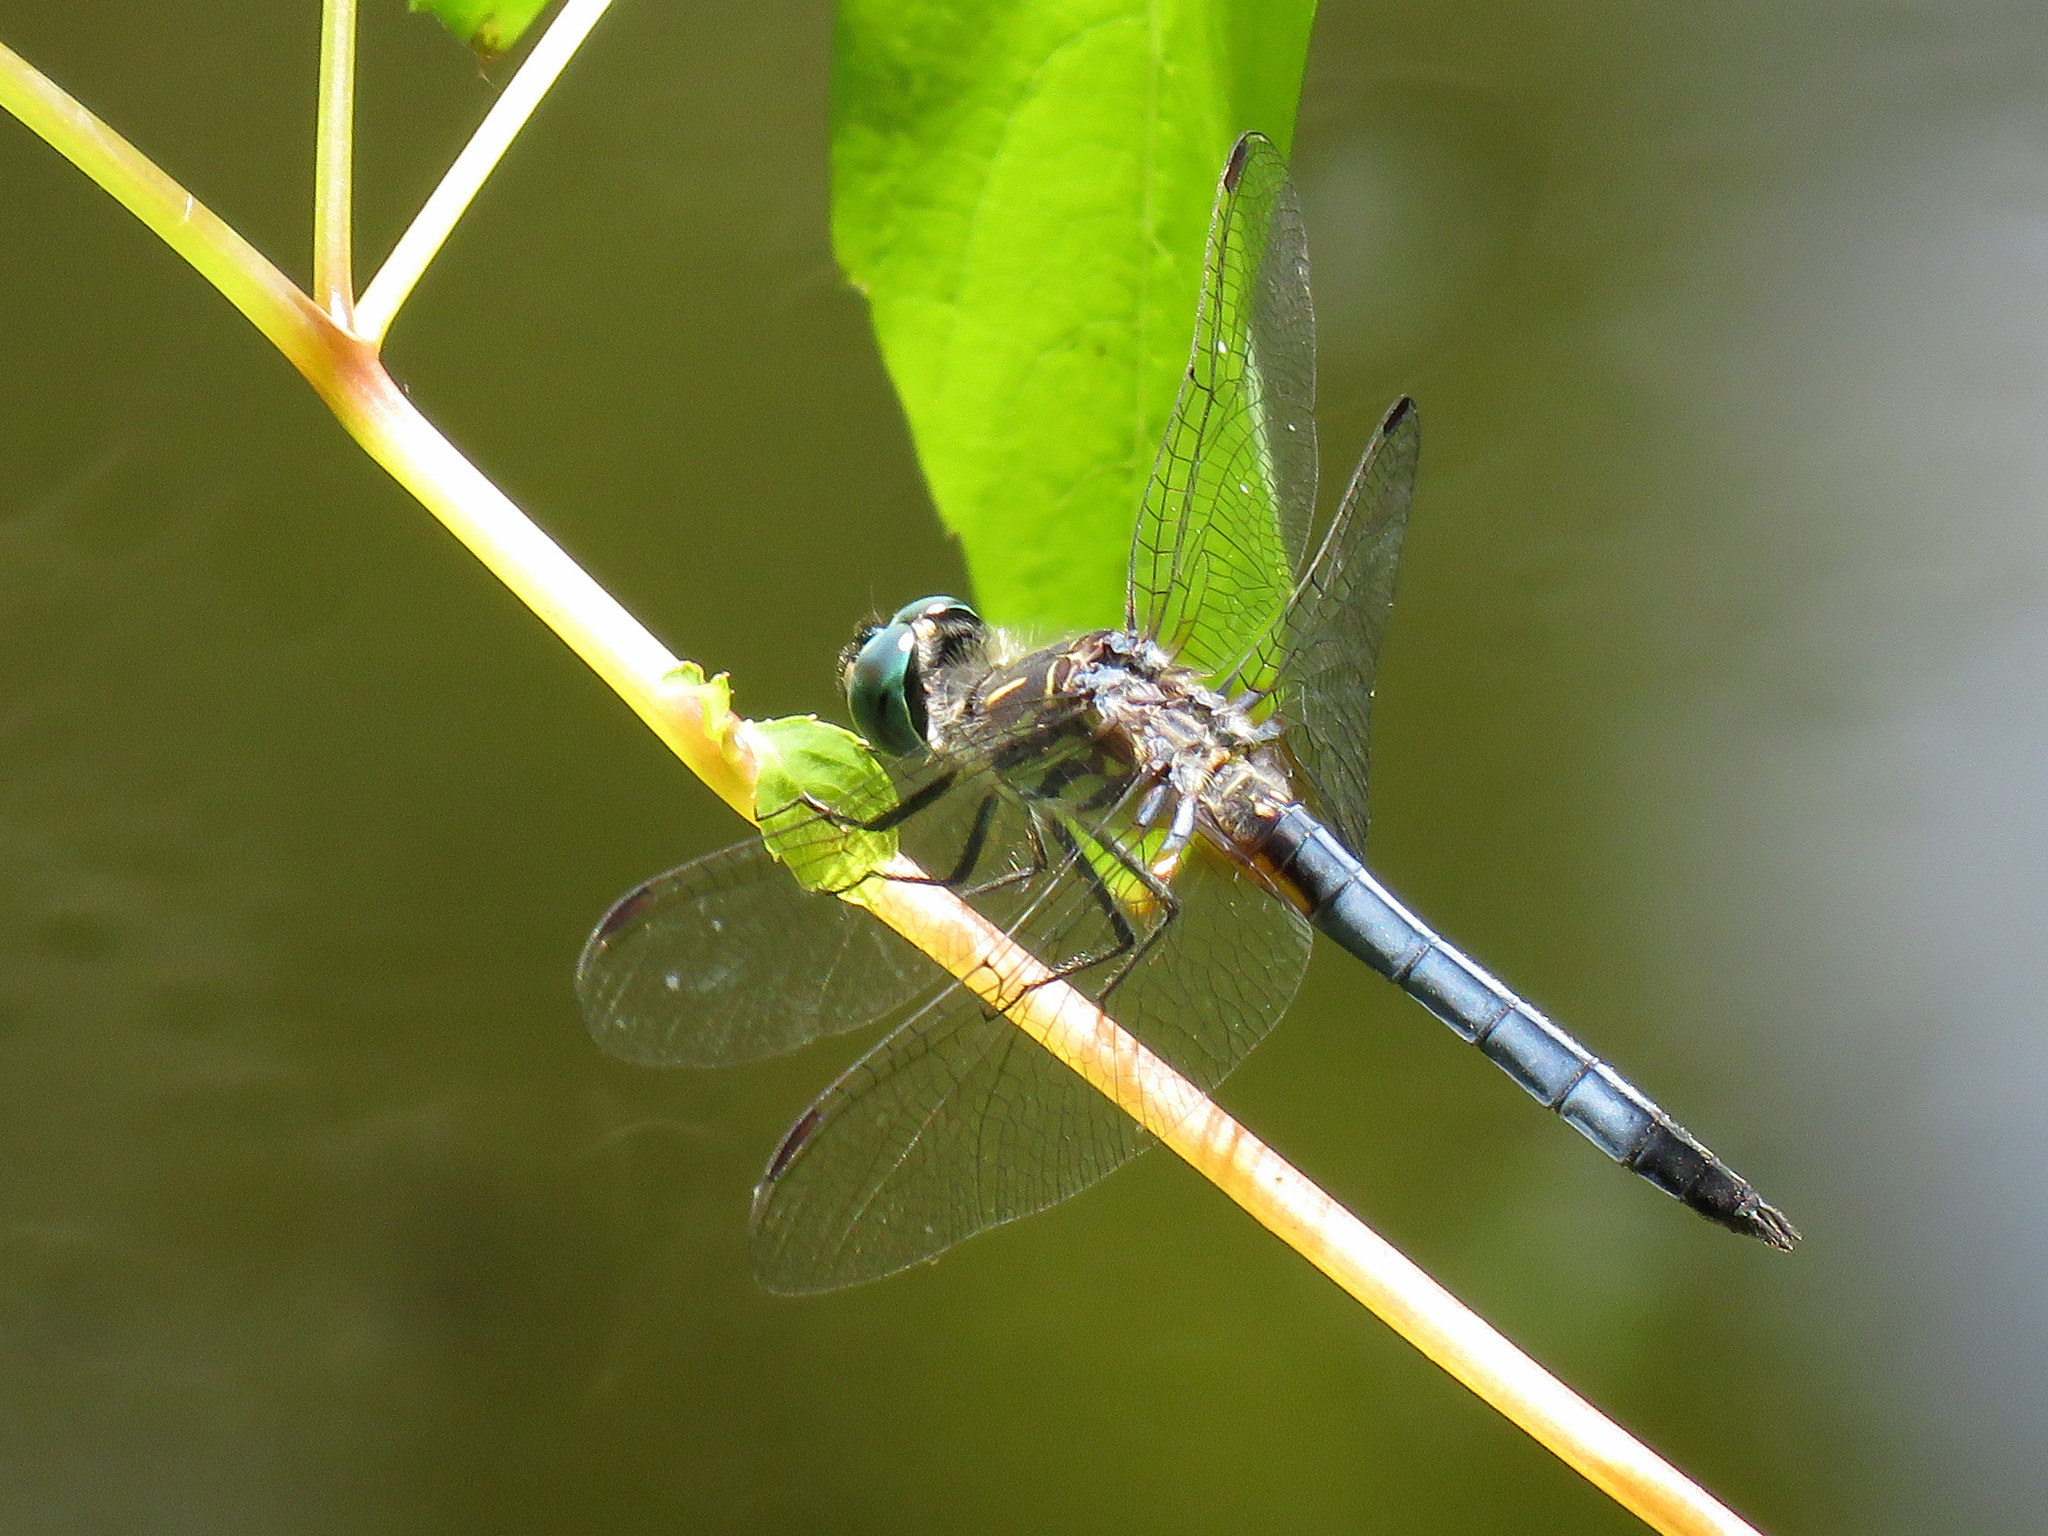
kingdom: Animalia
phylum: Arthropoda
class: Insecta
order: Odonata
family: Libellulidae
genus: Pachydiplax
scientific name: Pachydiplax longipennis
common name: Blue dasher
